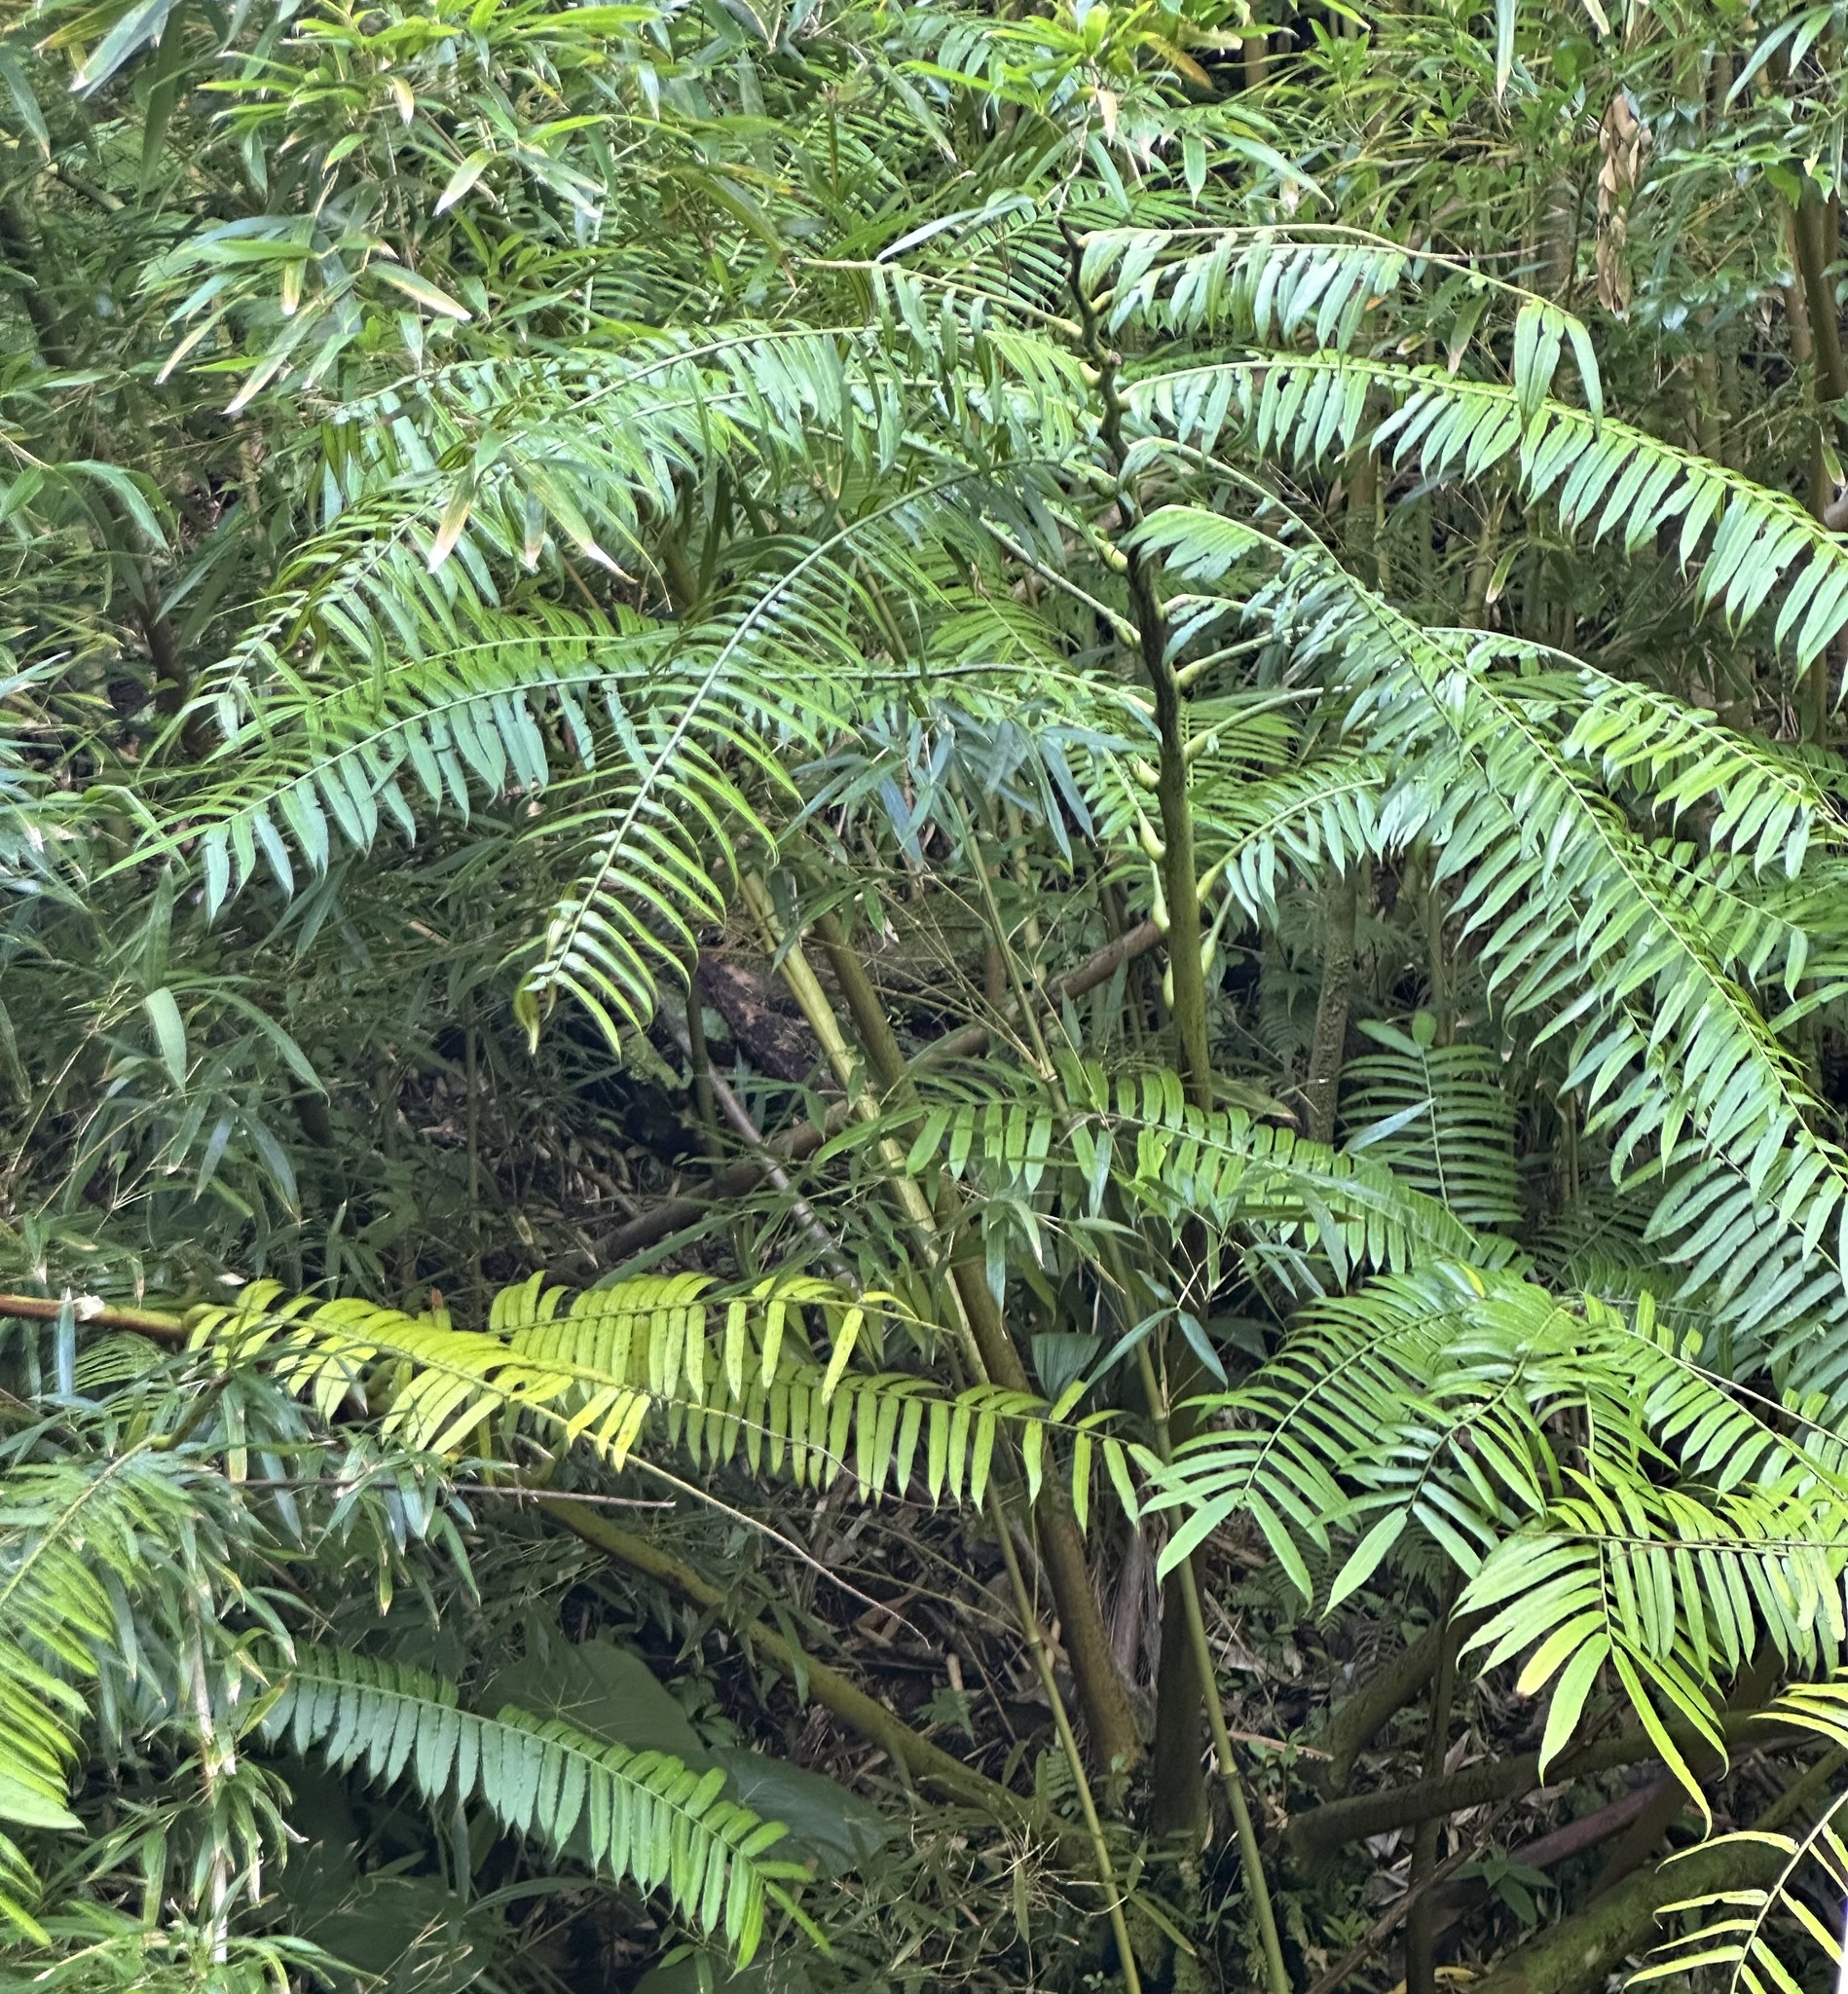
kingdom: Plantae
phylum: Tracheophyta
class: Polypodiopsida
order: Marattiales
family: Marattiaceae
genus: Angiopteris
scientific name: Angiopteris evecta
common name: Mule's-foot fern
